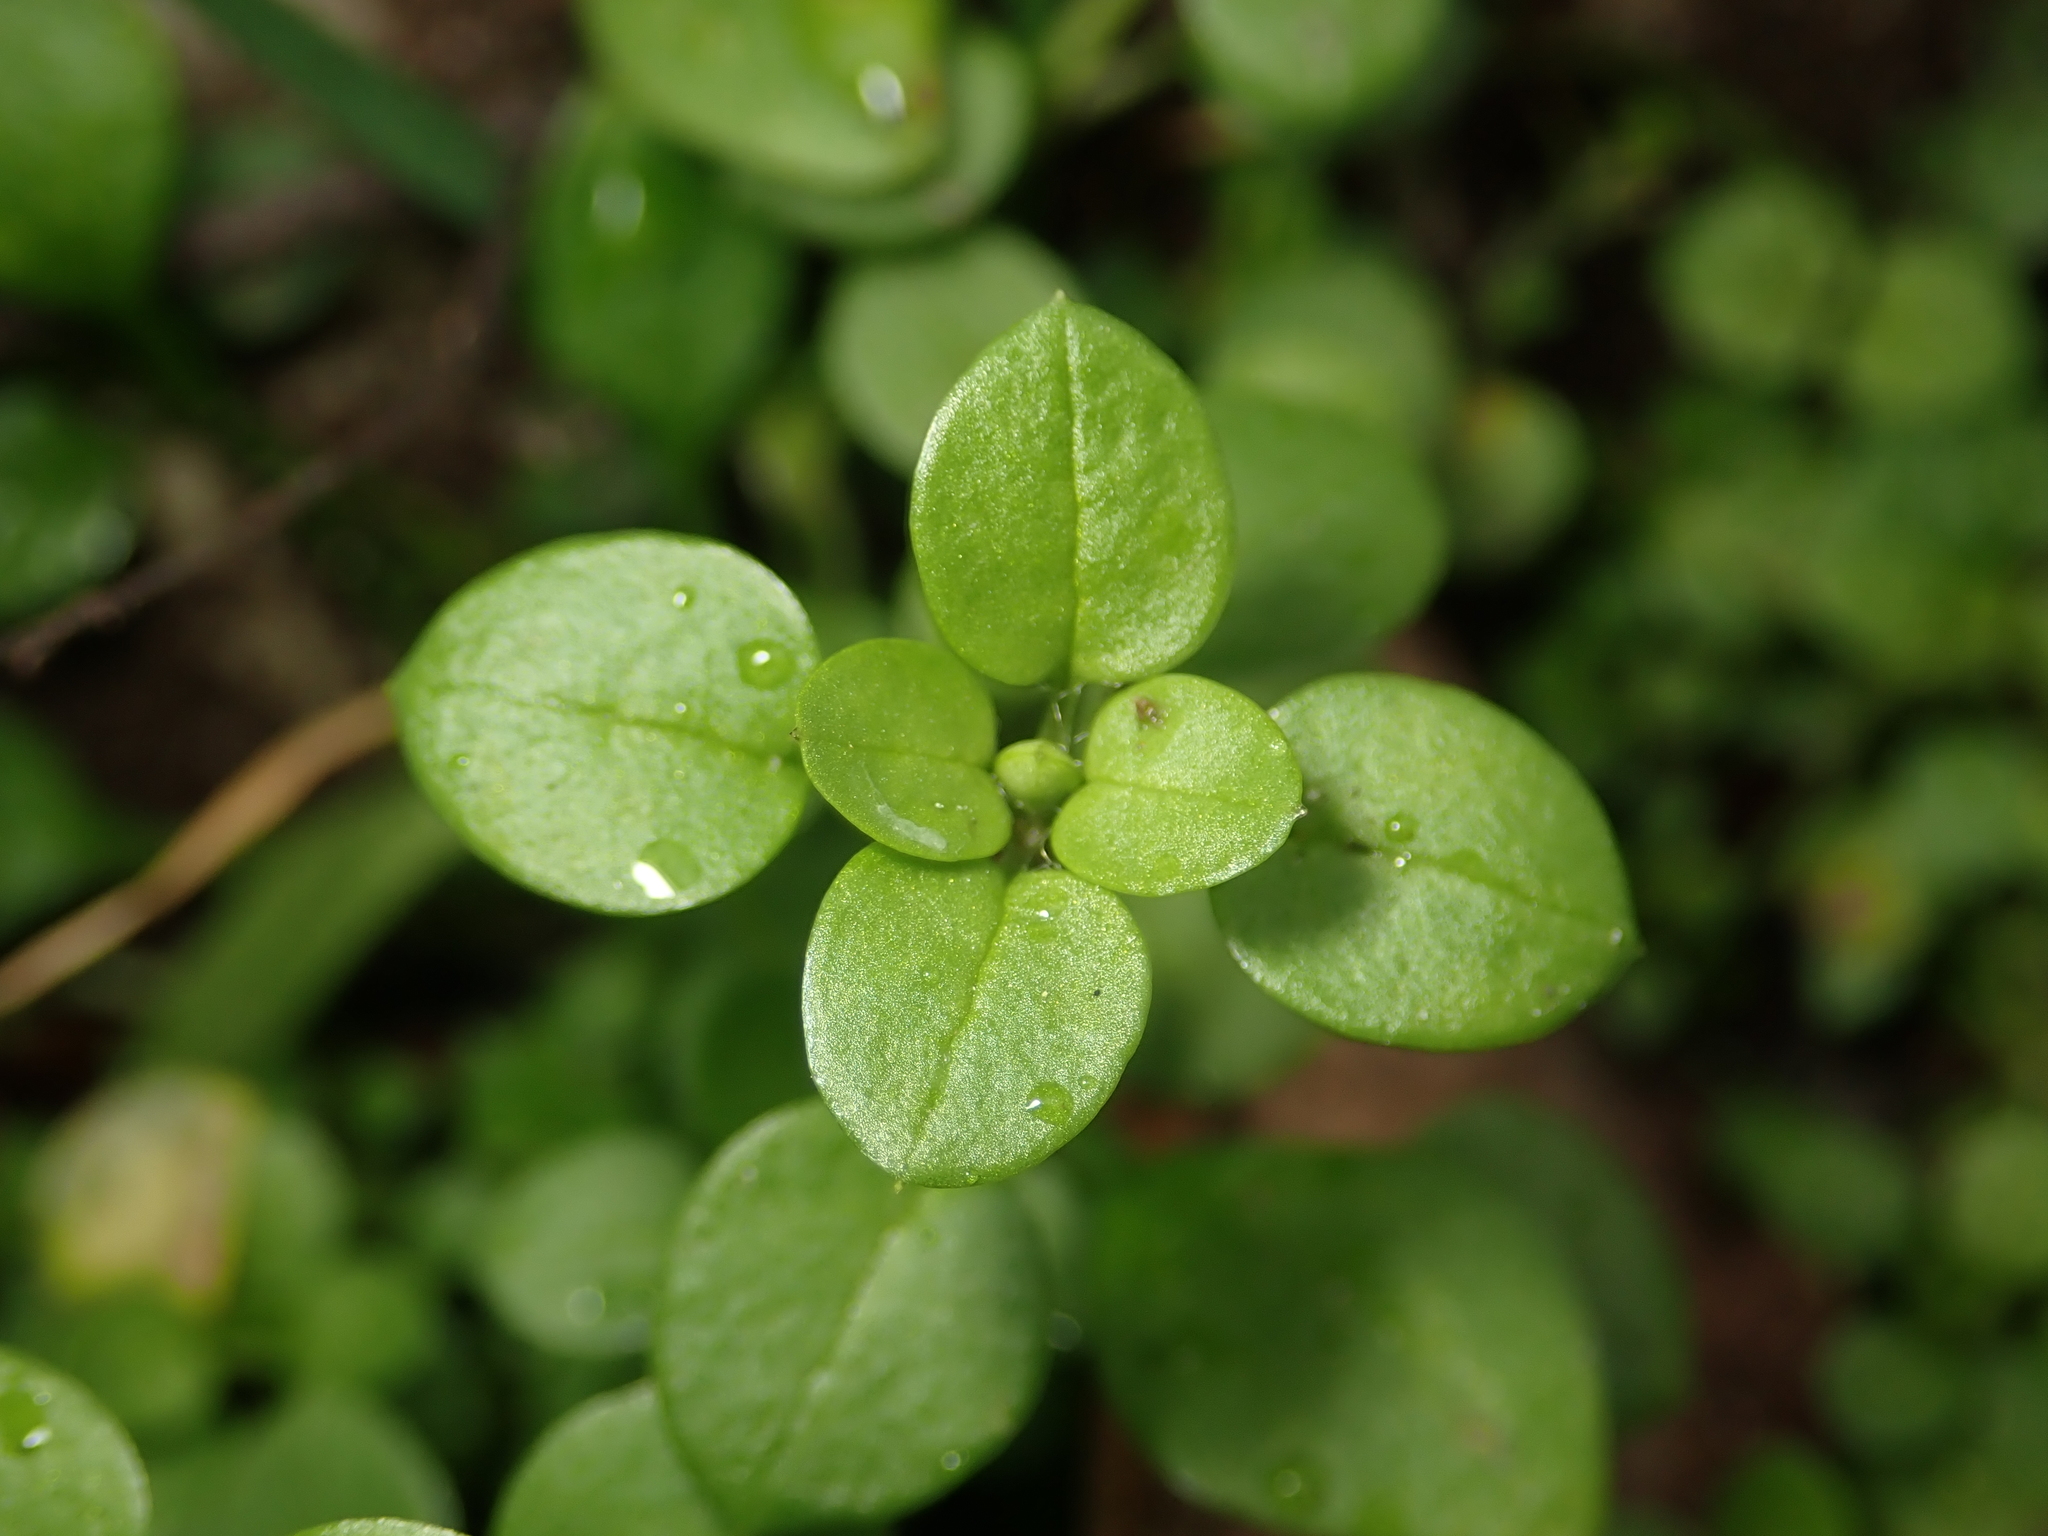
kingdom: Plantae
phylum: Tracheophyta
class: Magnoliopsida
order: Caryophyllales
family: Caryophyllaceae
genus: Stellaria
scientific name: Stellaria media
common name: Common chickweed
